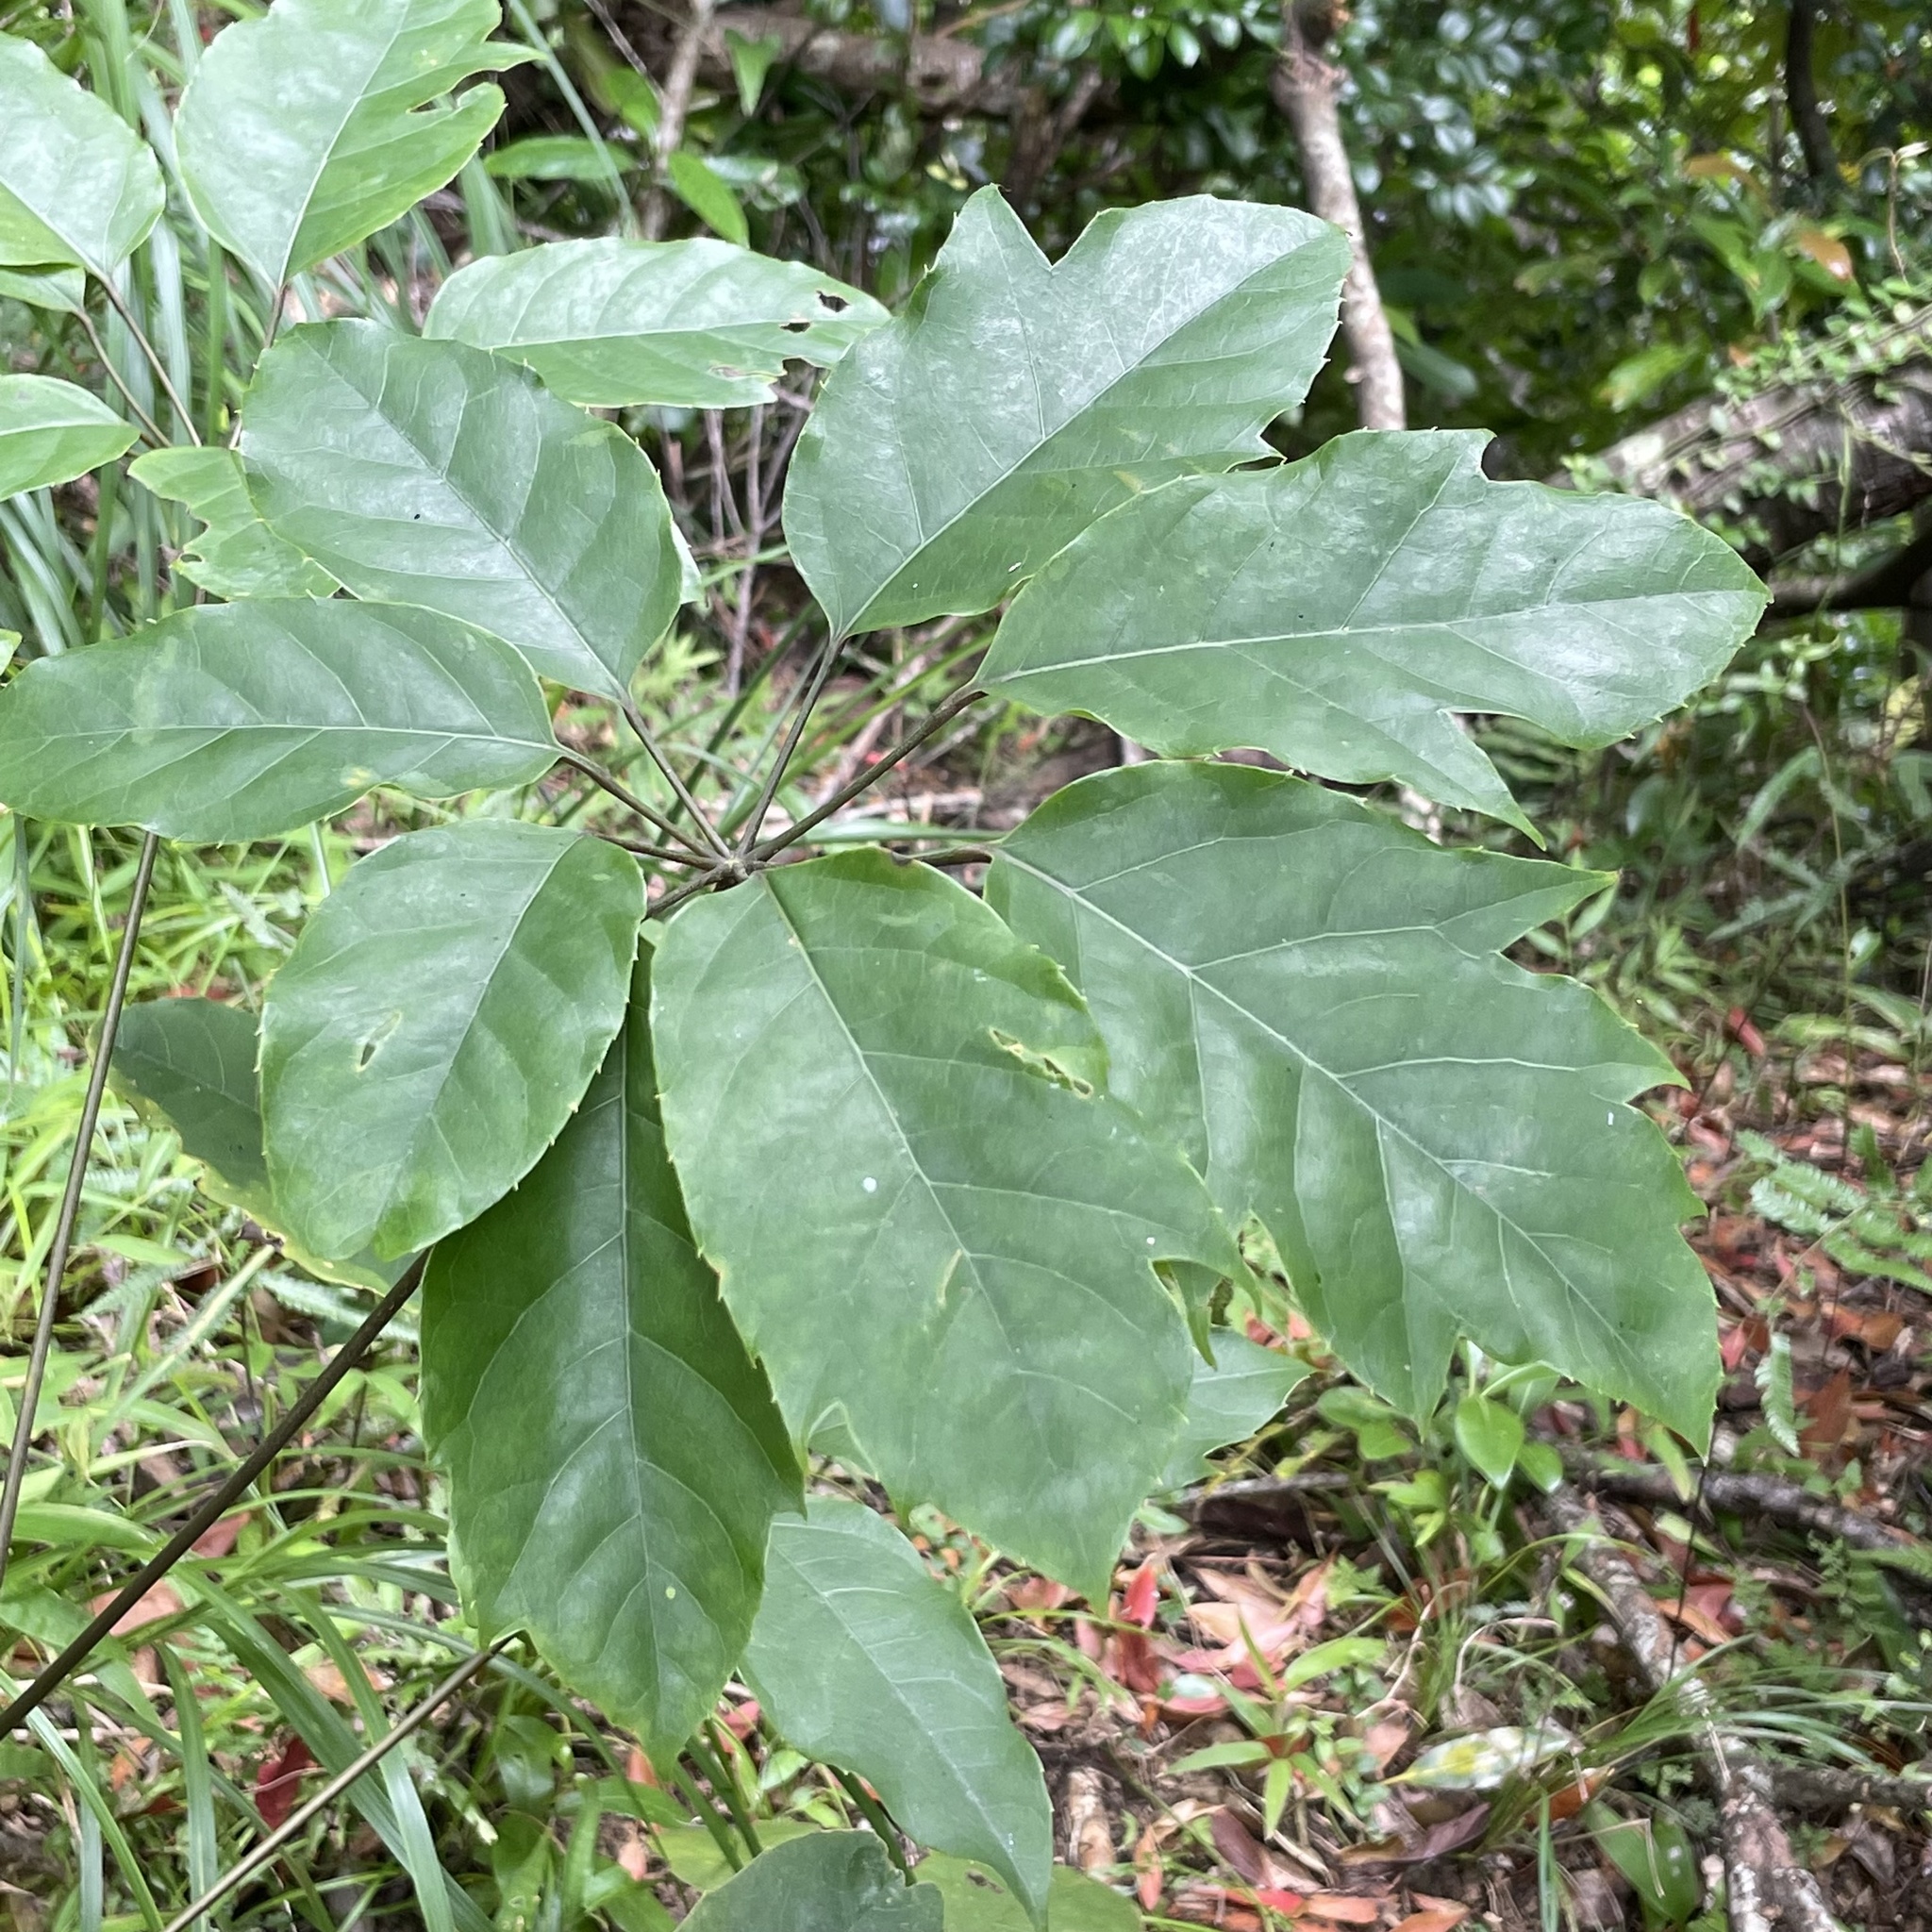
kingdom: Plantae
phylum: Tracheophyta
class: Magnoliopsida
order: Apiales
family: Araliaceae
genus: Heptapleurum
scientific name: Heptapleurum heptaphyllum
